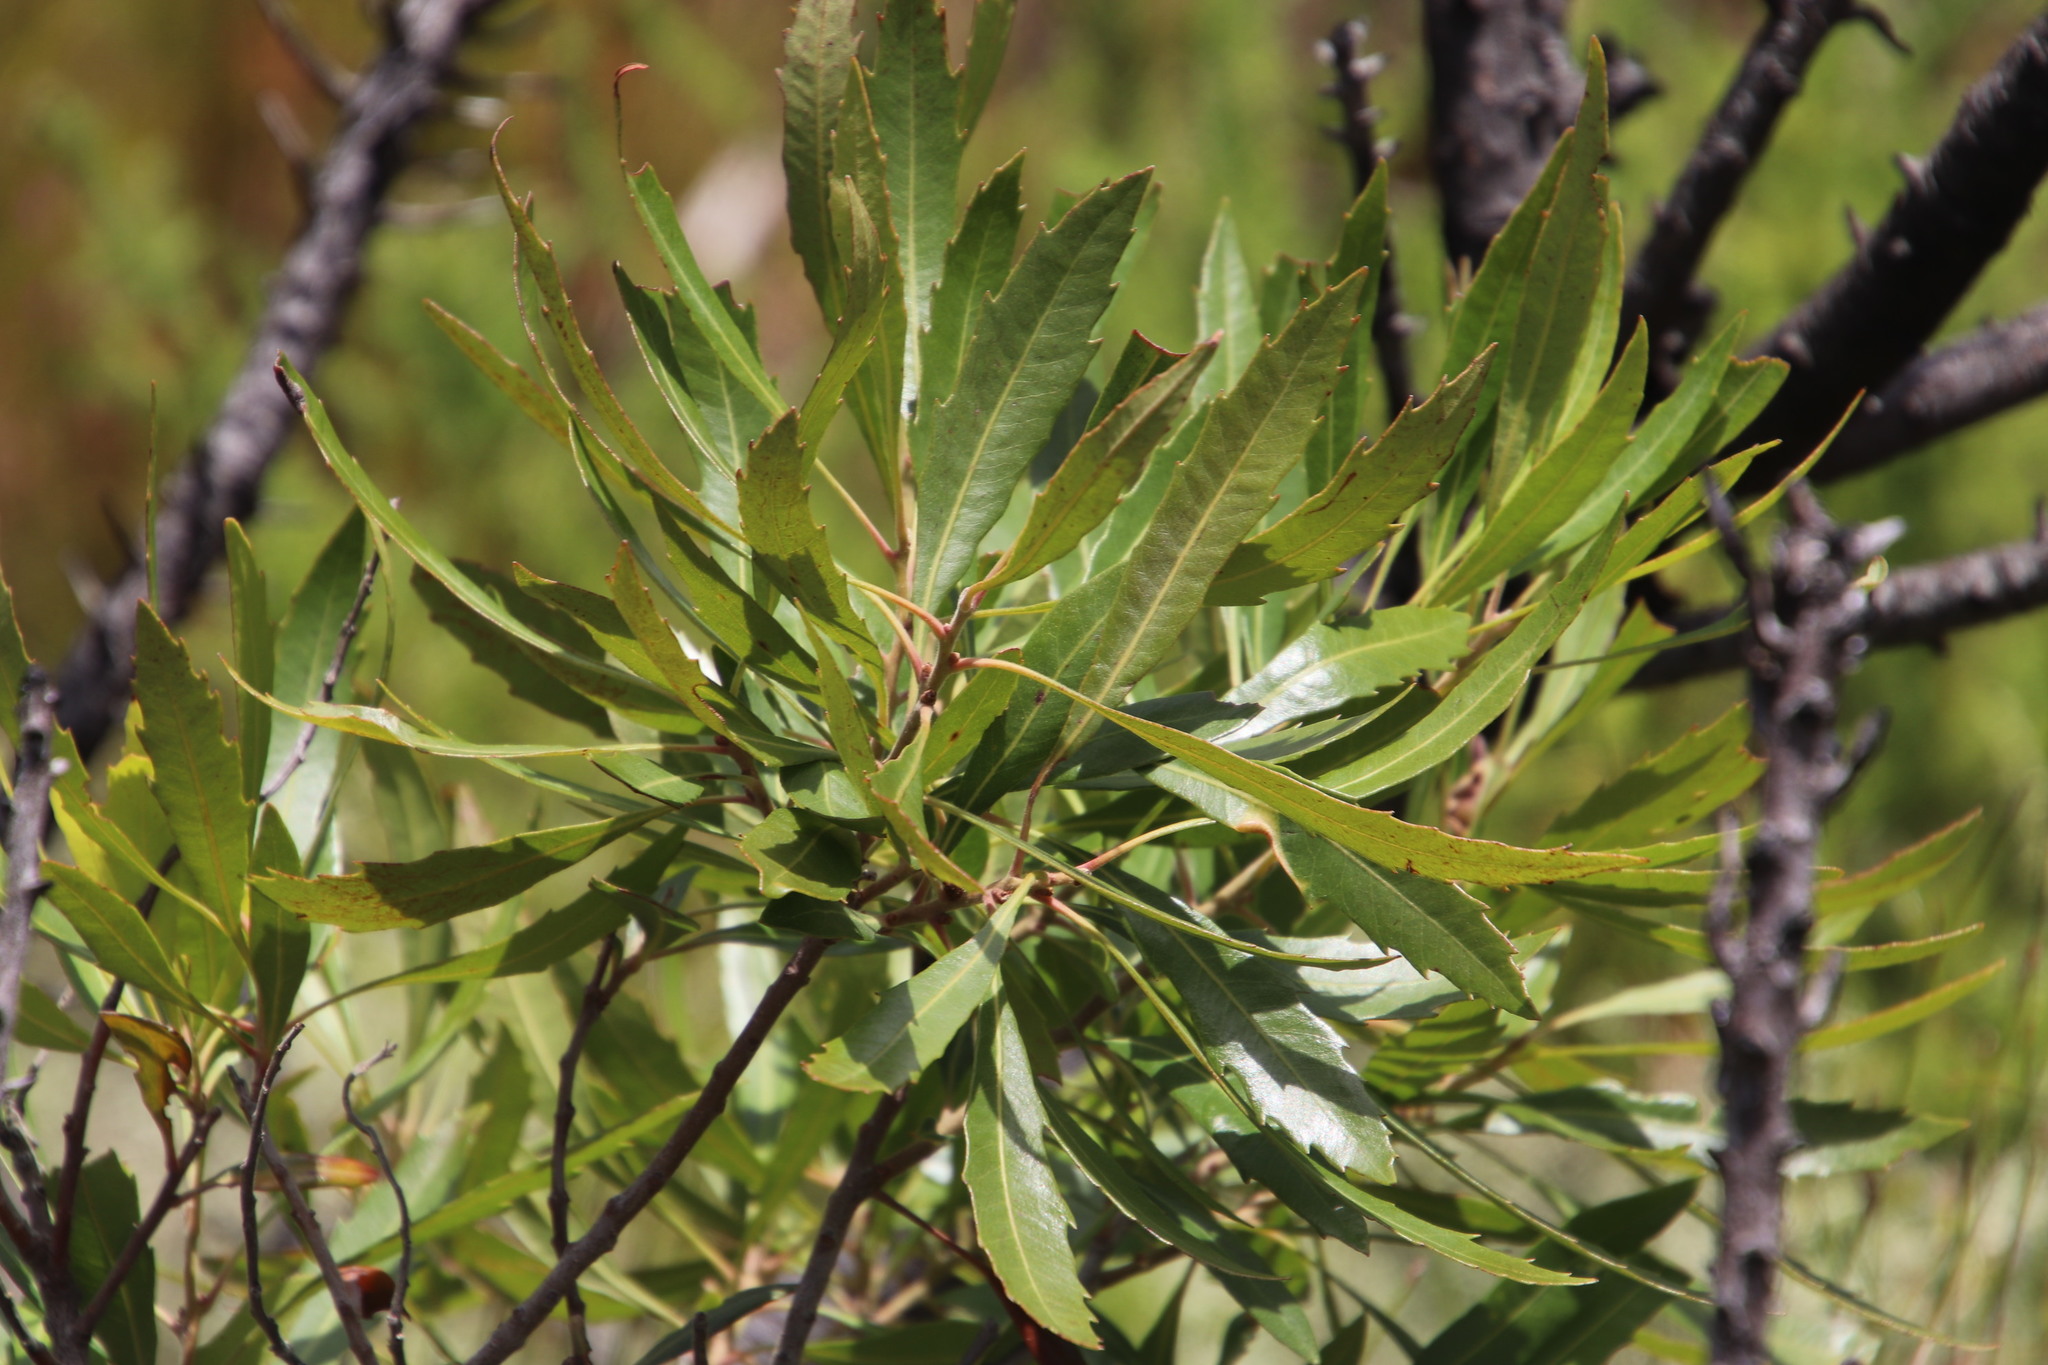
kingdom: Plantae
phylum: Tracheophyta
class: Magnoliopsida
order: Celastrales
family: Celastraceae
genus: Elaeodendron
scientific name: Elaeodendron schinoides
